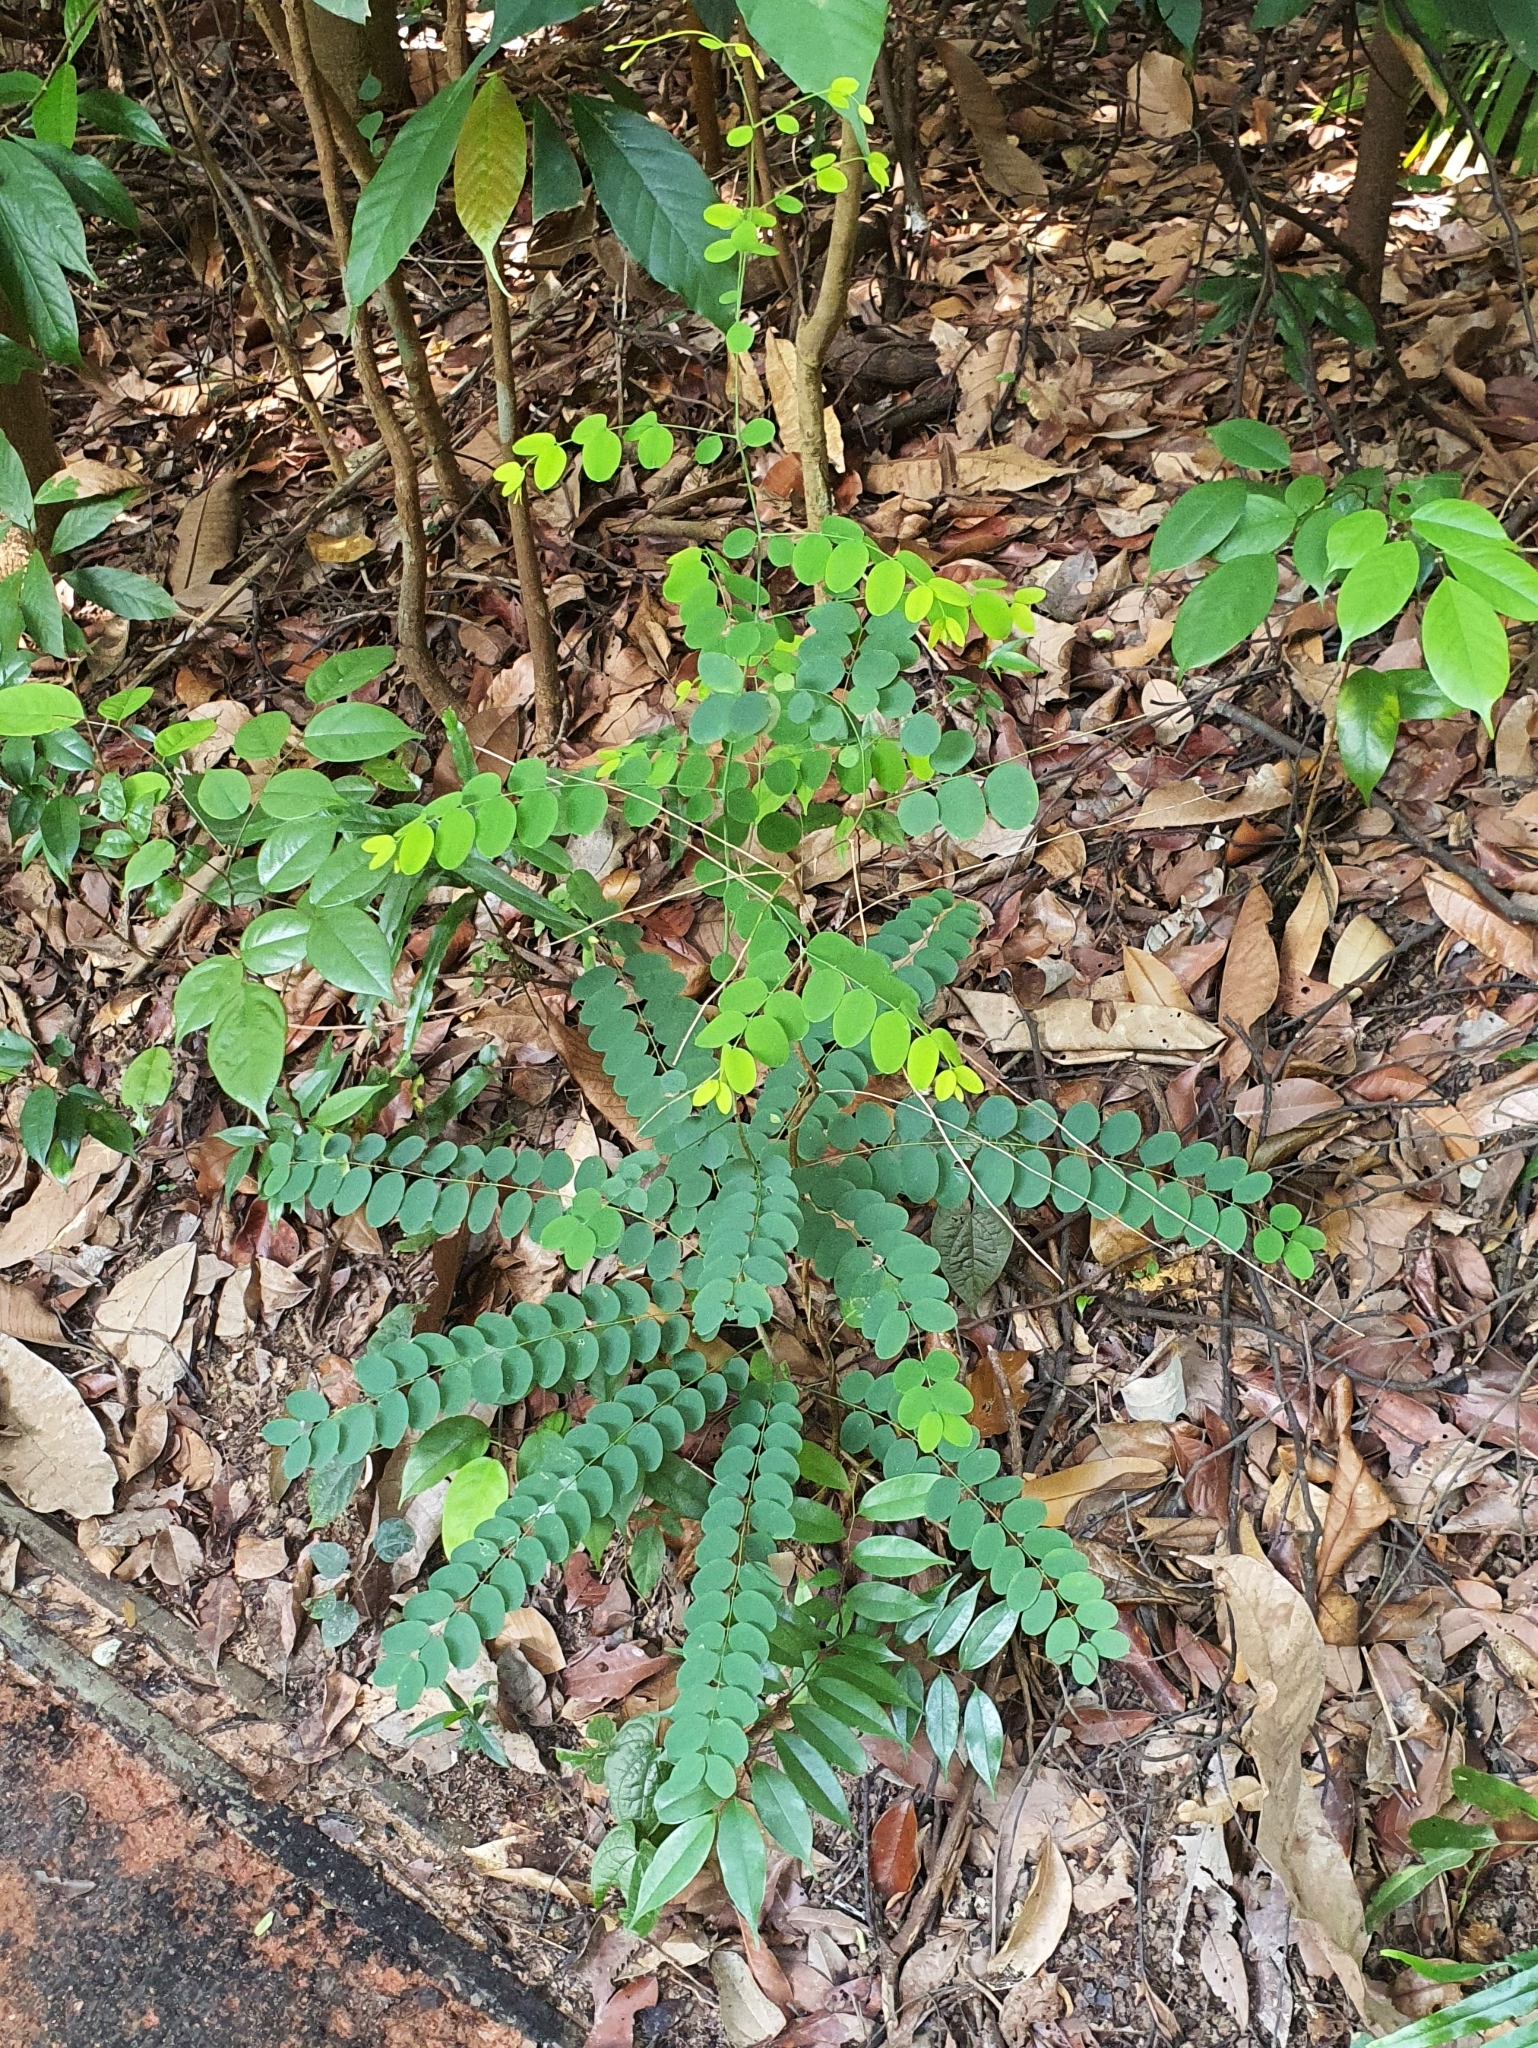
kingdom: Plantae
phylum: Tracheophyta
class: Magnoliopsida
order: Malvales
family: Thymelaeaceae
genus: Linostoma
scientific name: Linostoma pauciflorum
